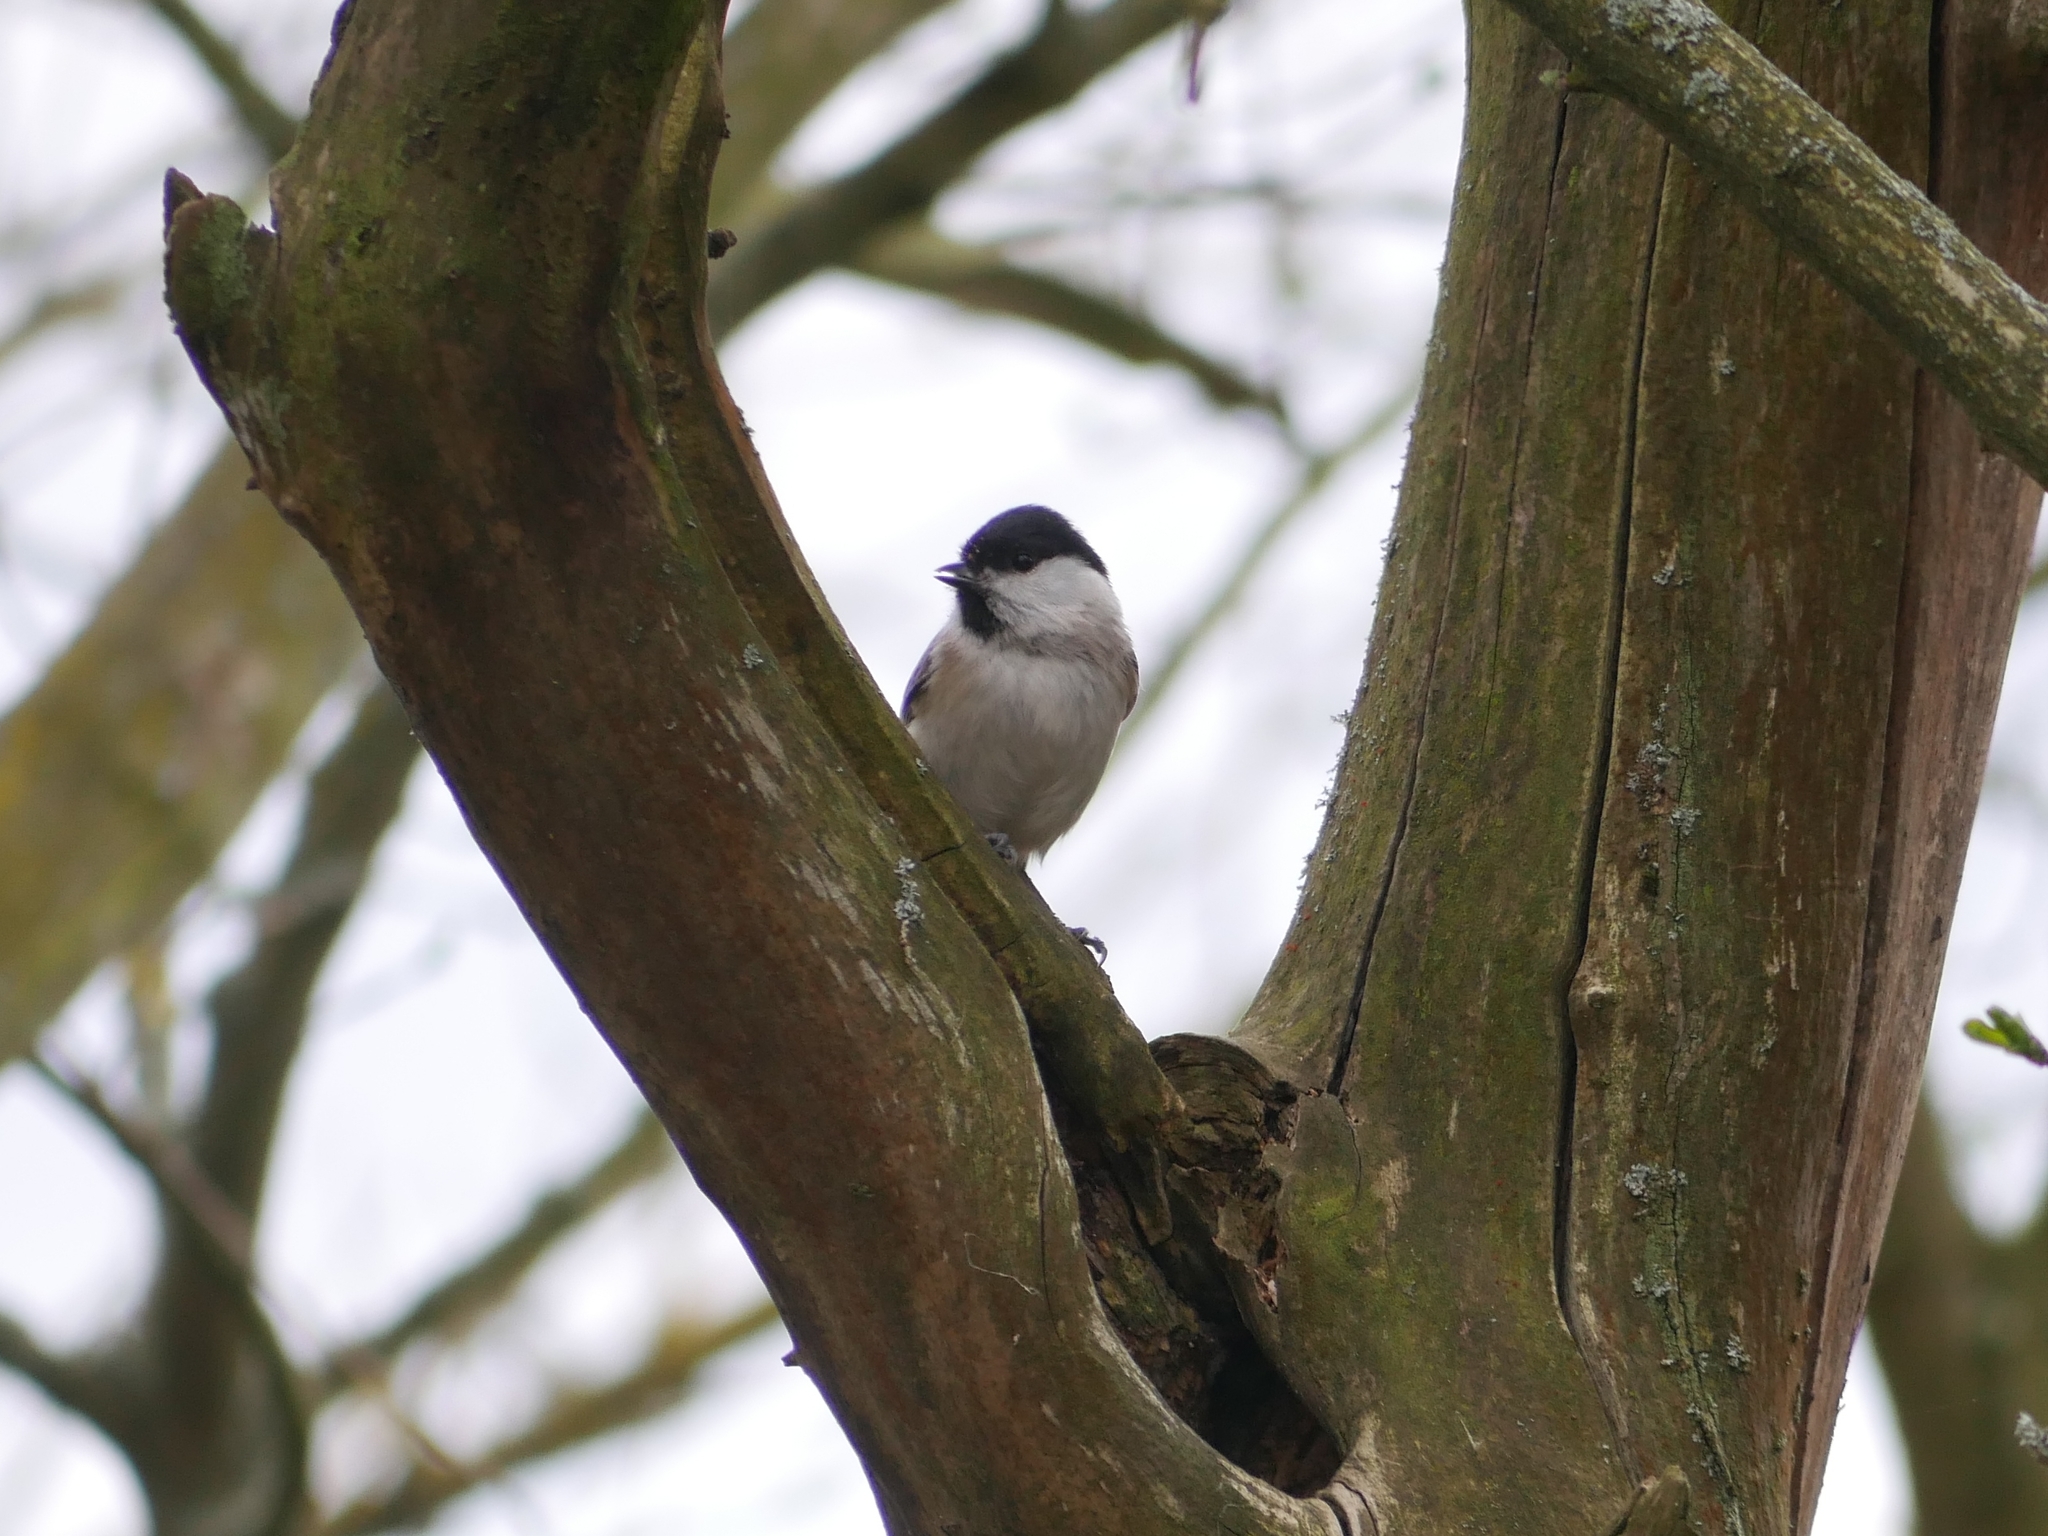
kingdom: Animalia
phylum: Chordata
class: Aves
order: Passeriformes
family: Paridae
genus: Poecile
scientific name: Poecile palustris
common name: Marsh tit
